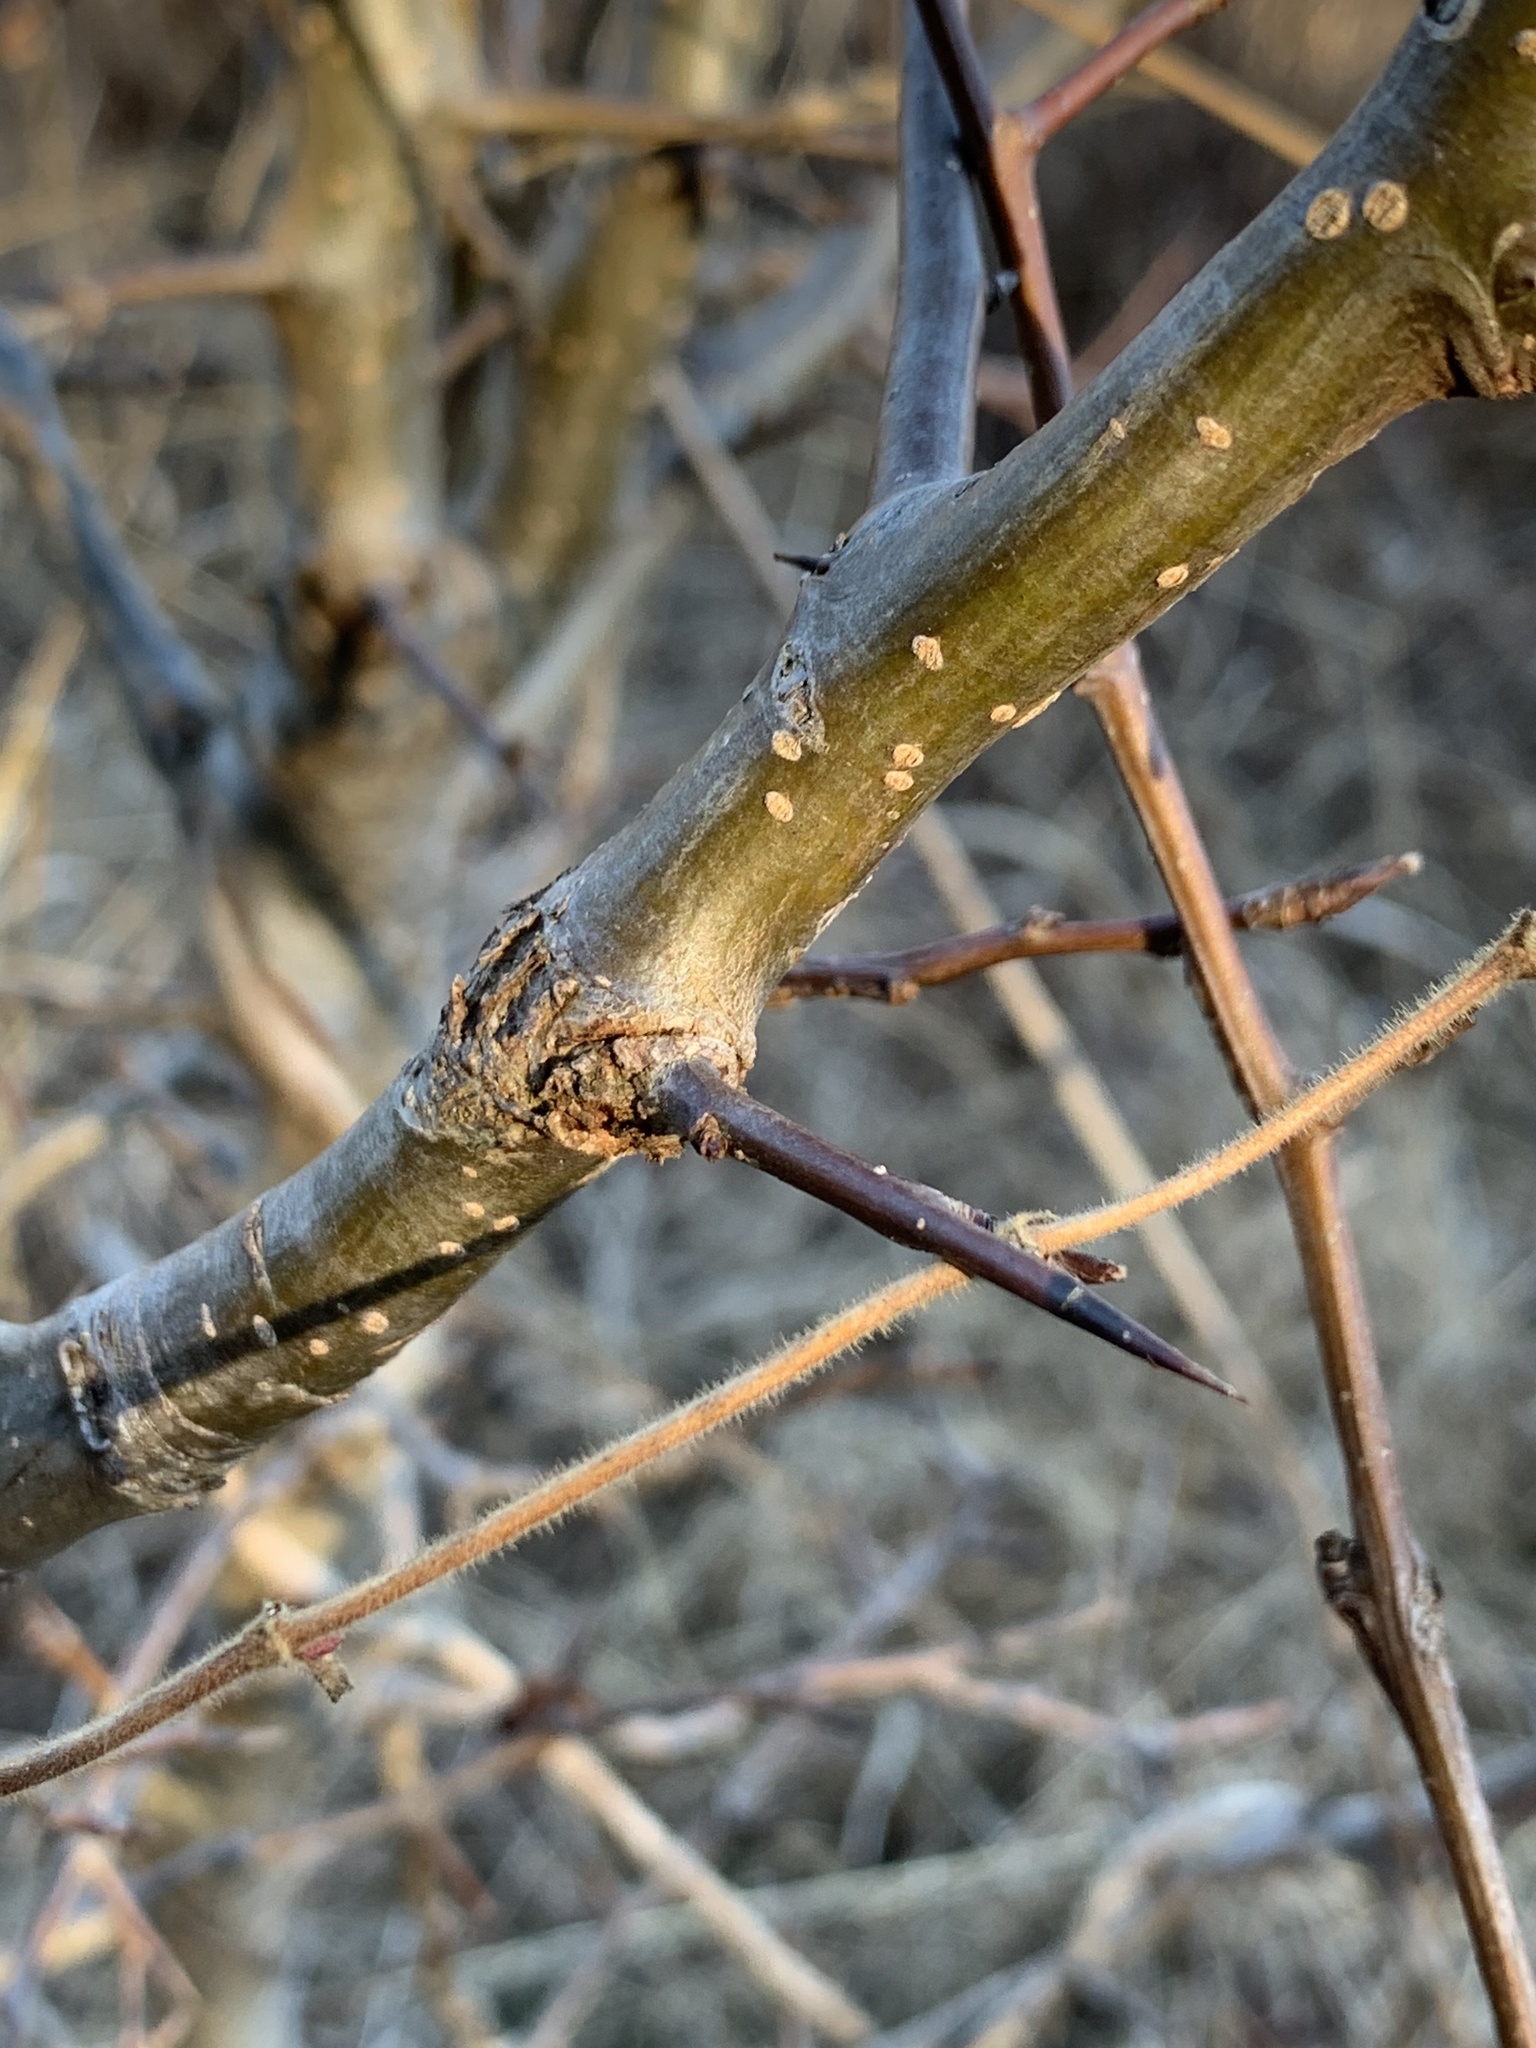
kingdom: Plantae
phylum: Tracheophyta
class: Magnoliopsida
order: Fabales
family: Fabaceae
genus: Gleditsia
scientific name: Gleditsia triacanthos
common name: Common honeylocust
